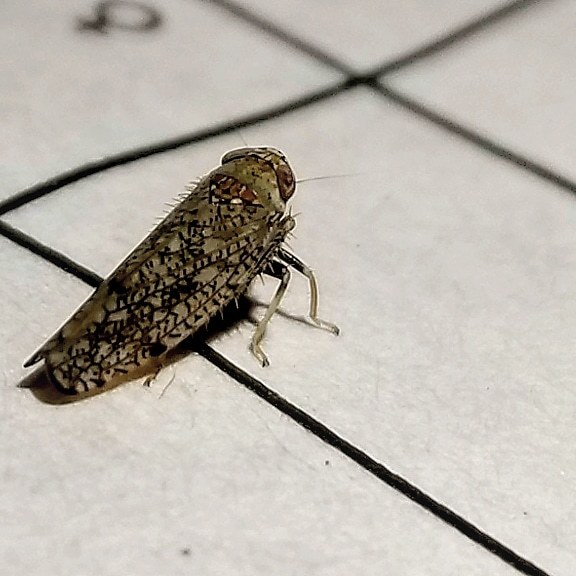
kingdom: Animalia
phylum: Arthropoda
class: Insecta
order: Hemiptera
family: Cicadellidae
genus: Orientus
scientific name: Orientus ishidae
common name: Japanese leafhopper
